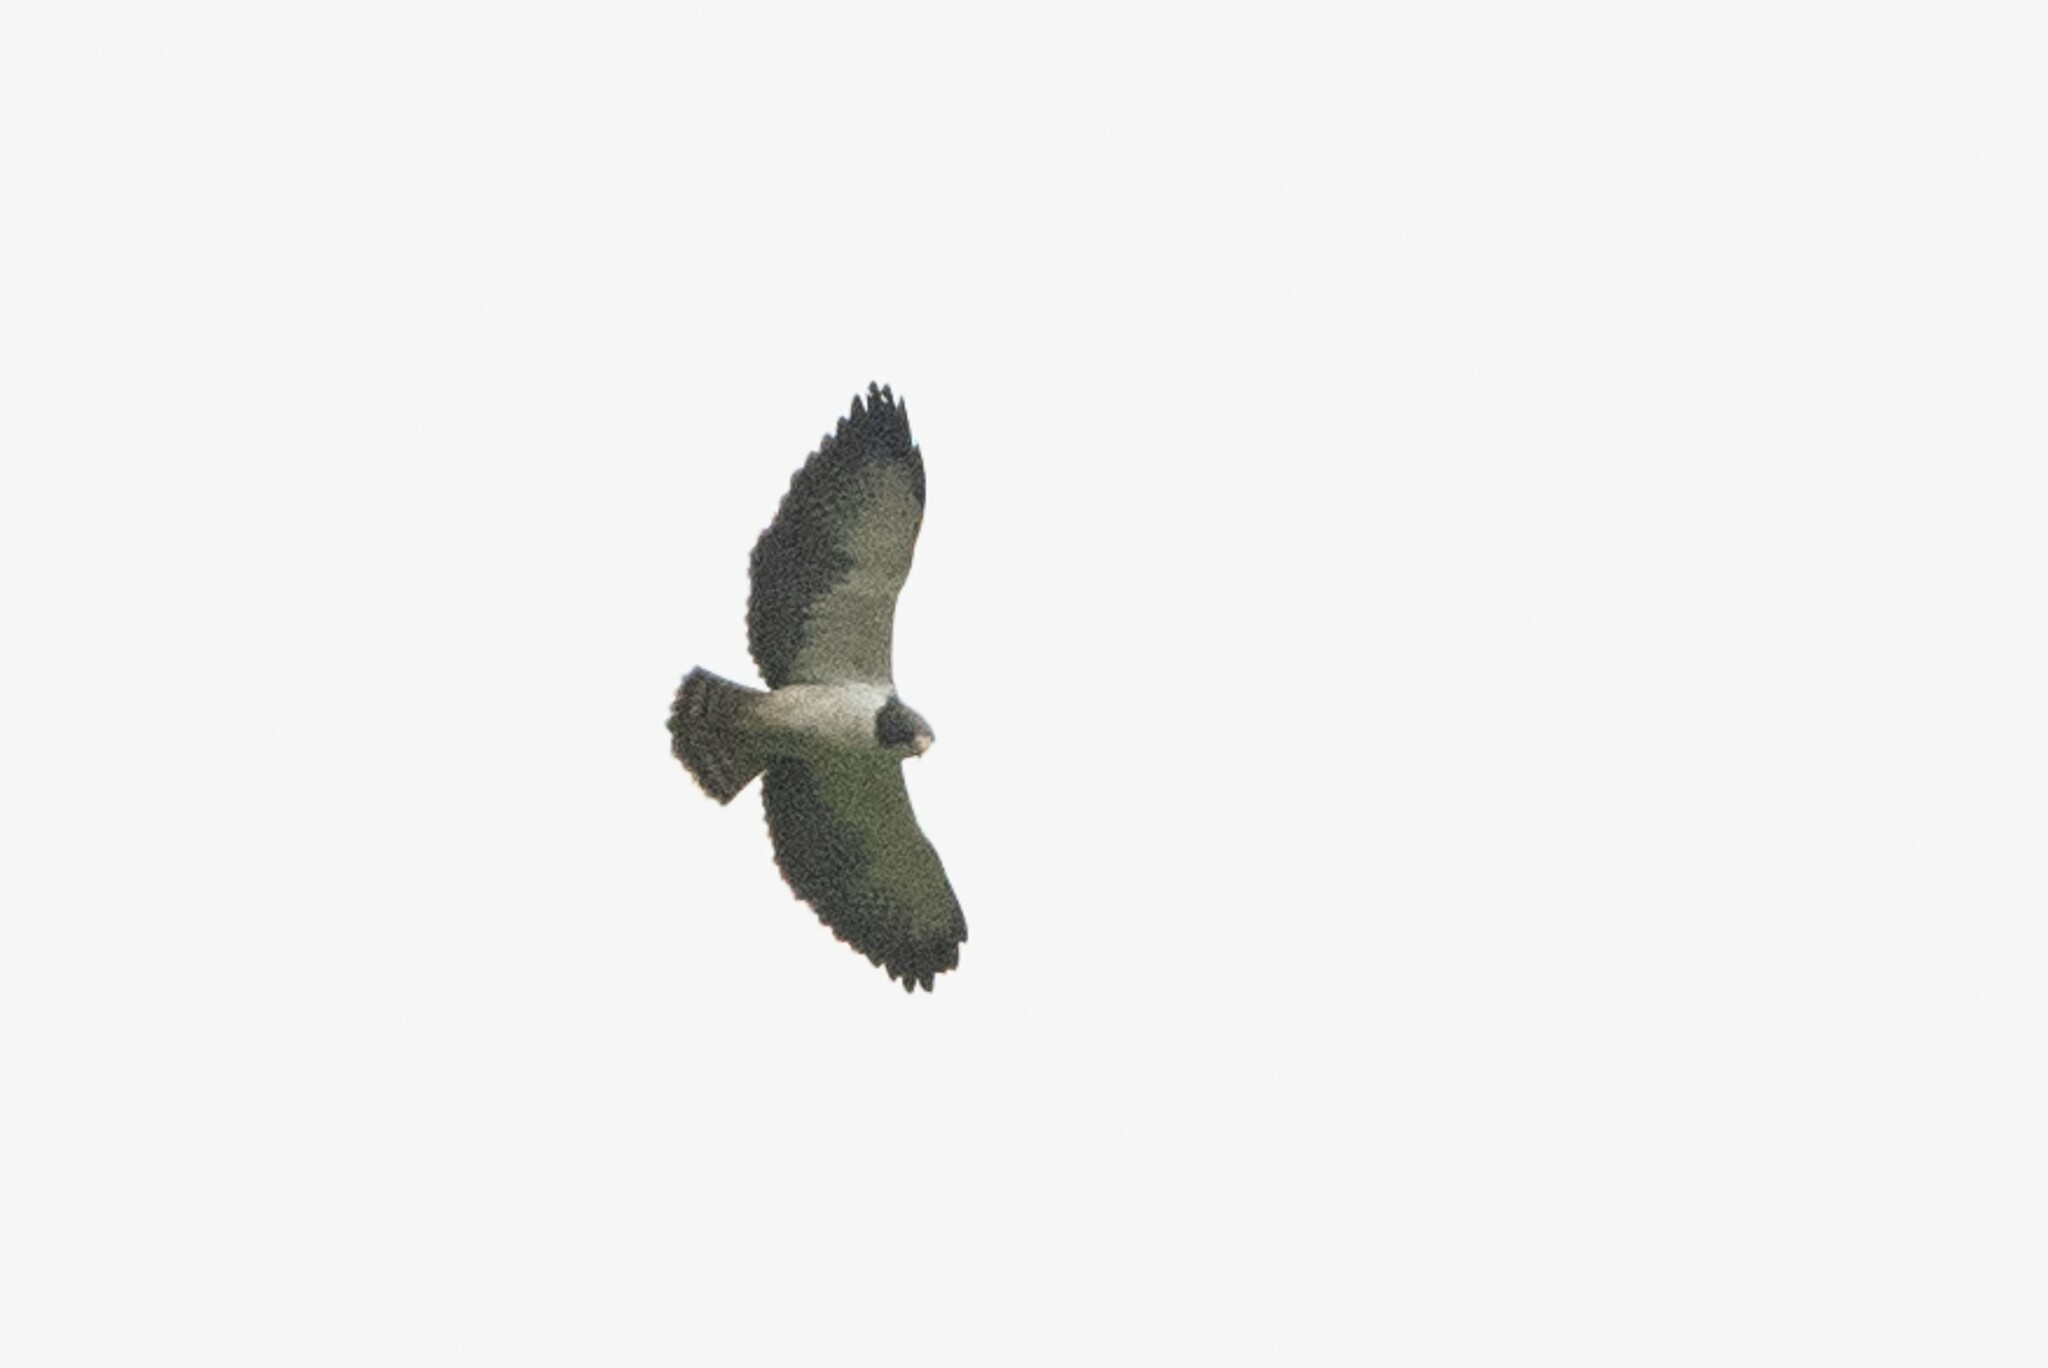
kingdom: Animalia
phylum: Chordata
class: Aves
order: Accipitriformes
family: Accipitridae
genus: Buteo
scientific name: Buteo brachyurus
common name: Short-tailed hawk
